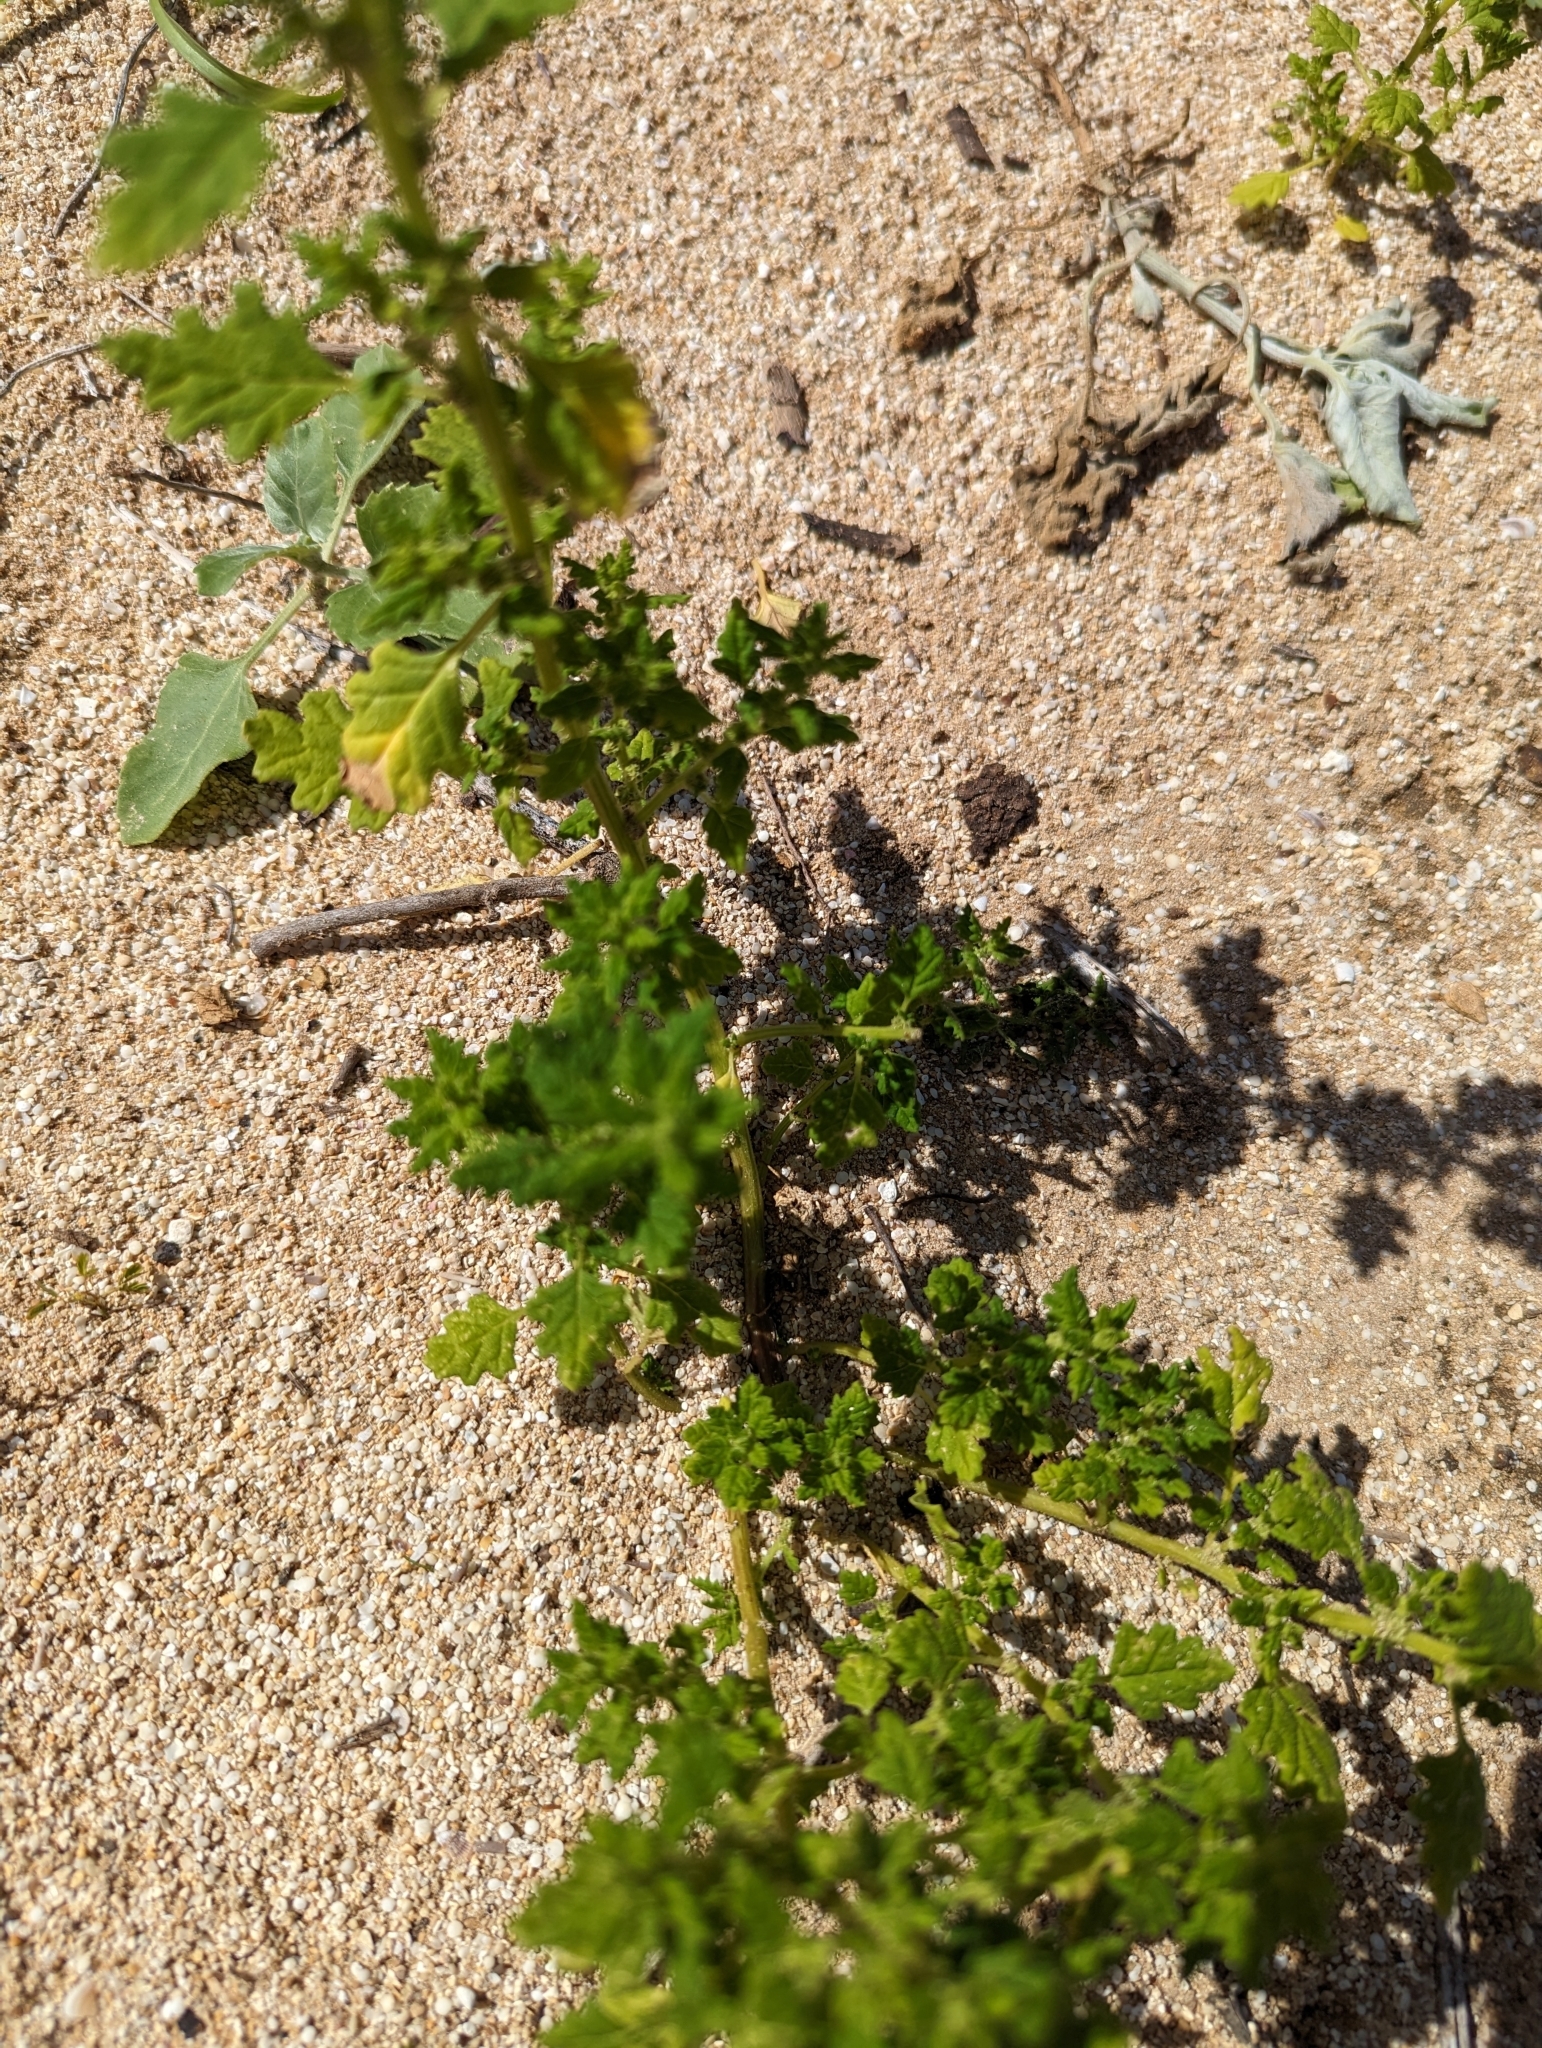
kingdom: Plantae
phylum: Tracheophyta
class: Magnoliopsida
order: Caryophyllales
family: Amaranthaceae
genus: Dysphania
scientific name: Dysphania carinata
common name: Keeled wormseed
